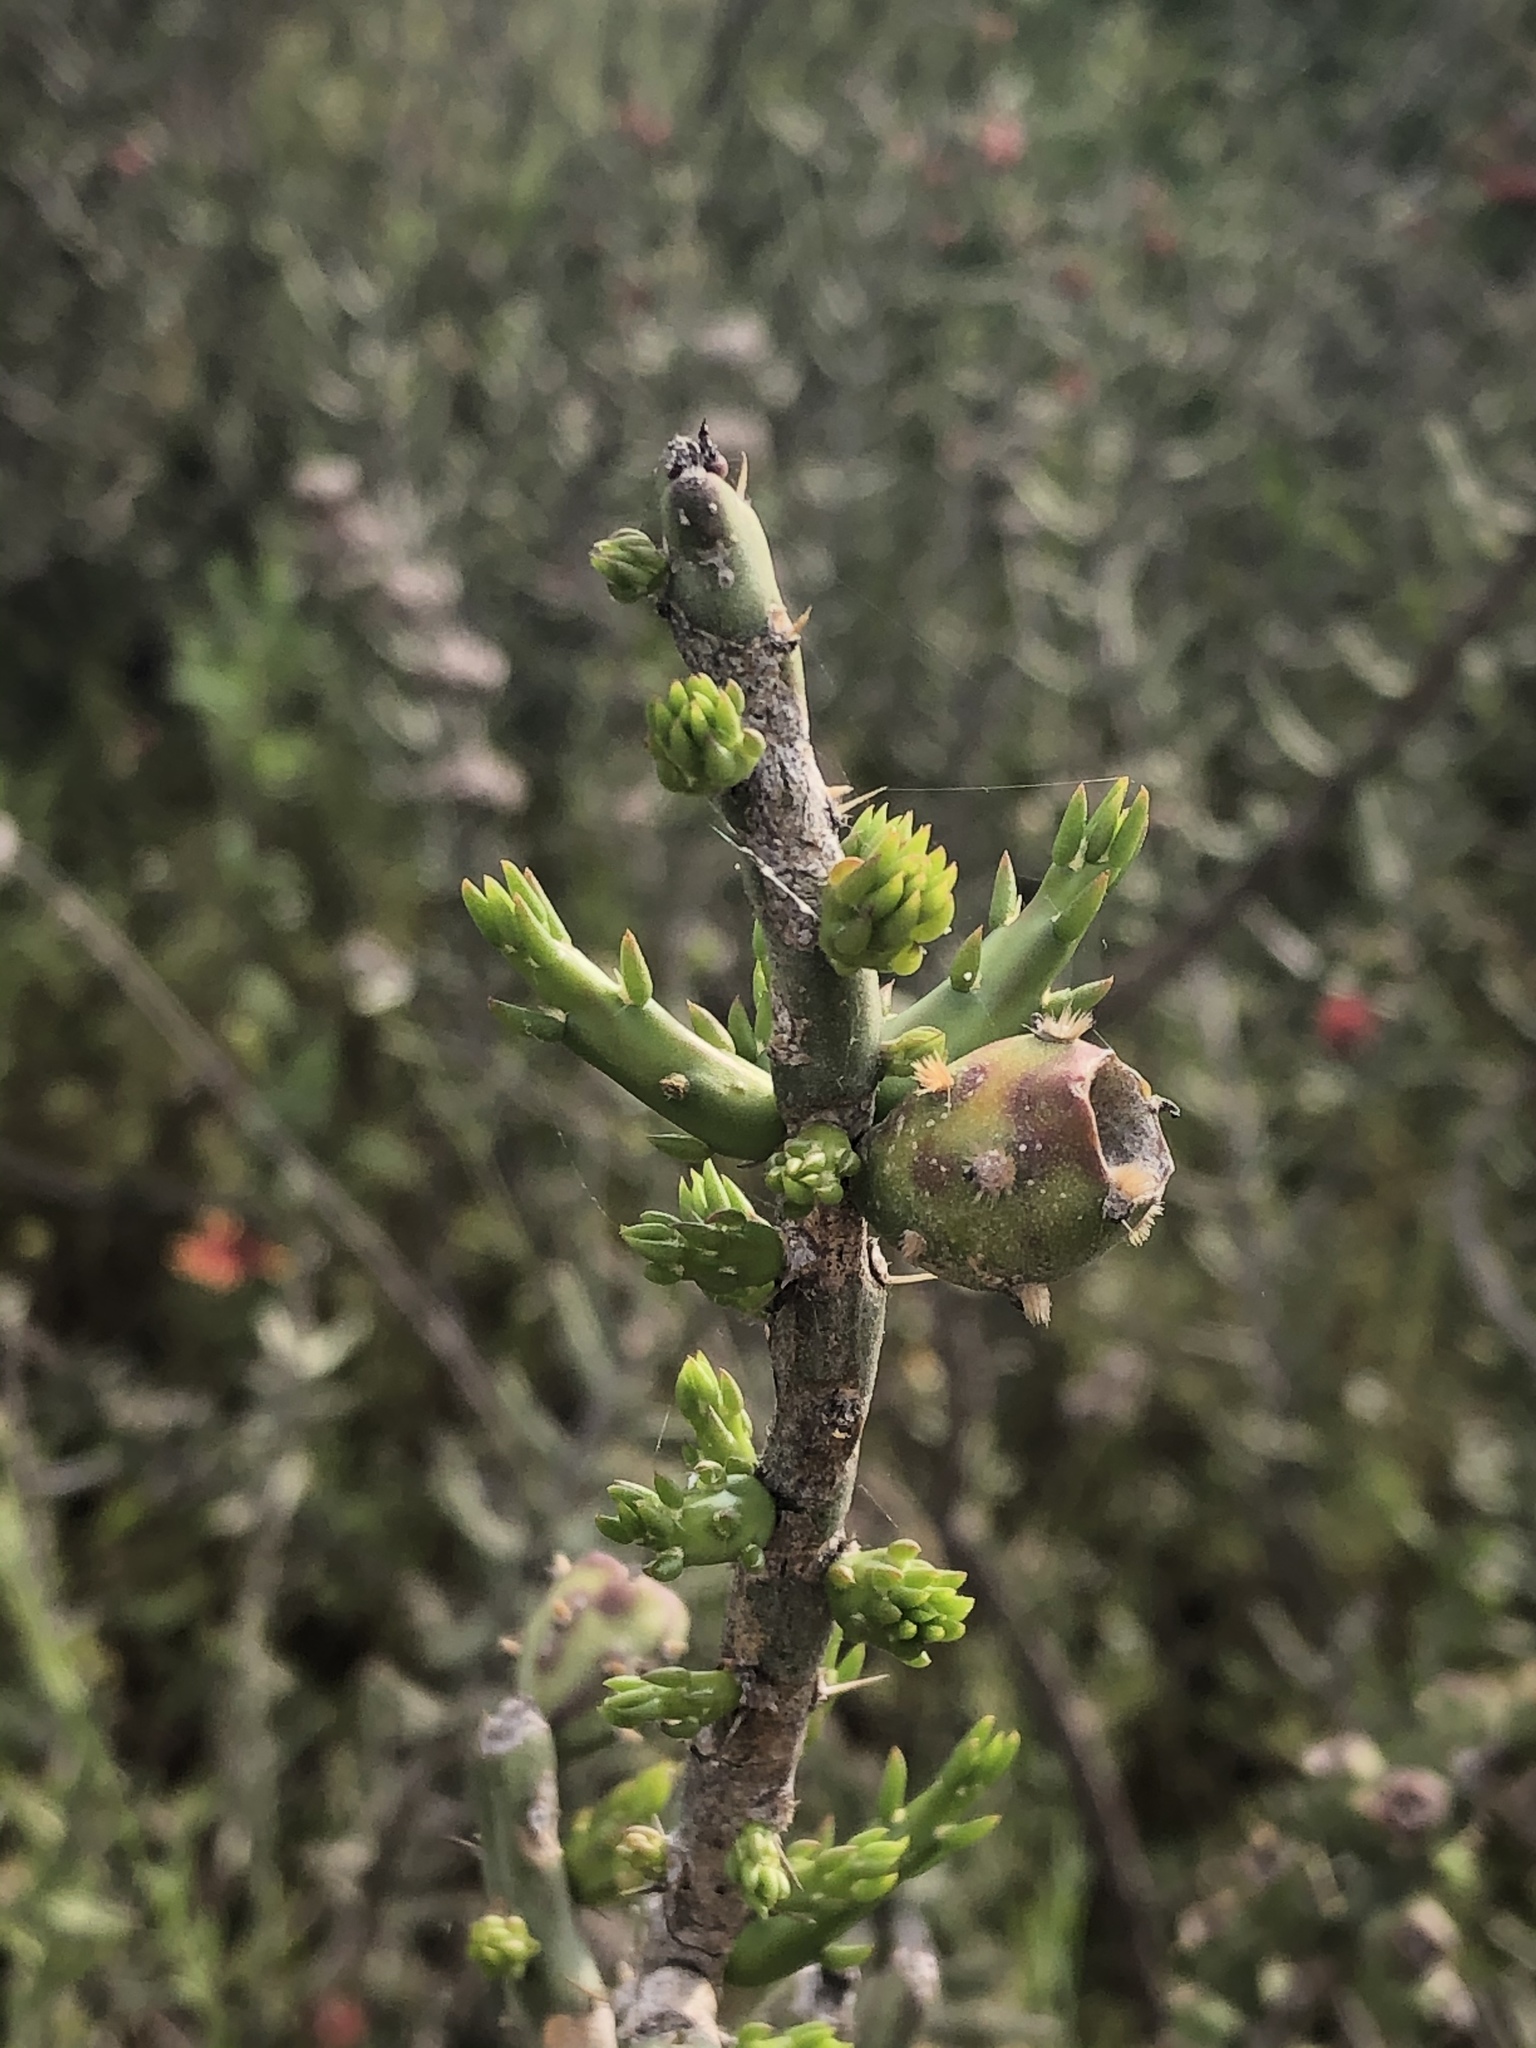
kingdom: Plantae
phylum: Tracheophyta
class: Magnoliopsida
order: Caryophyllales
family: Cactaceae
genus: Cylindropuntia
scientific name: Cylindropuntia leptocaulis
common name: Christmas cactus
